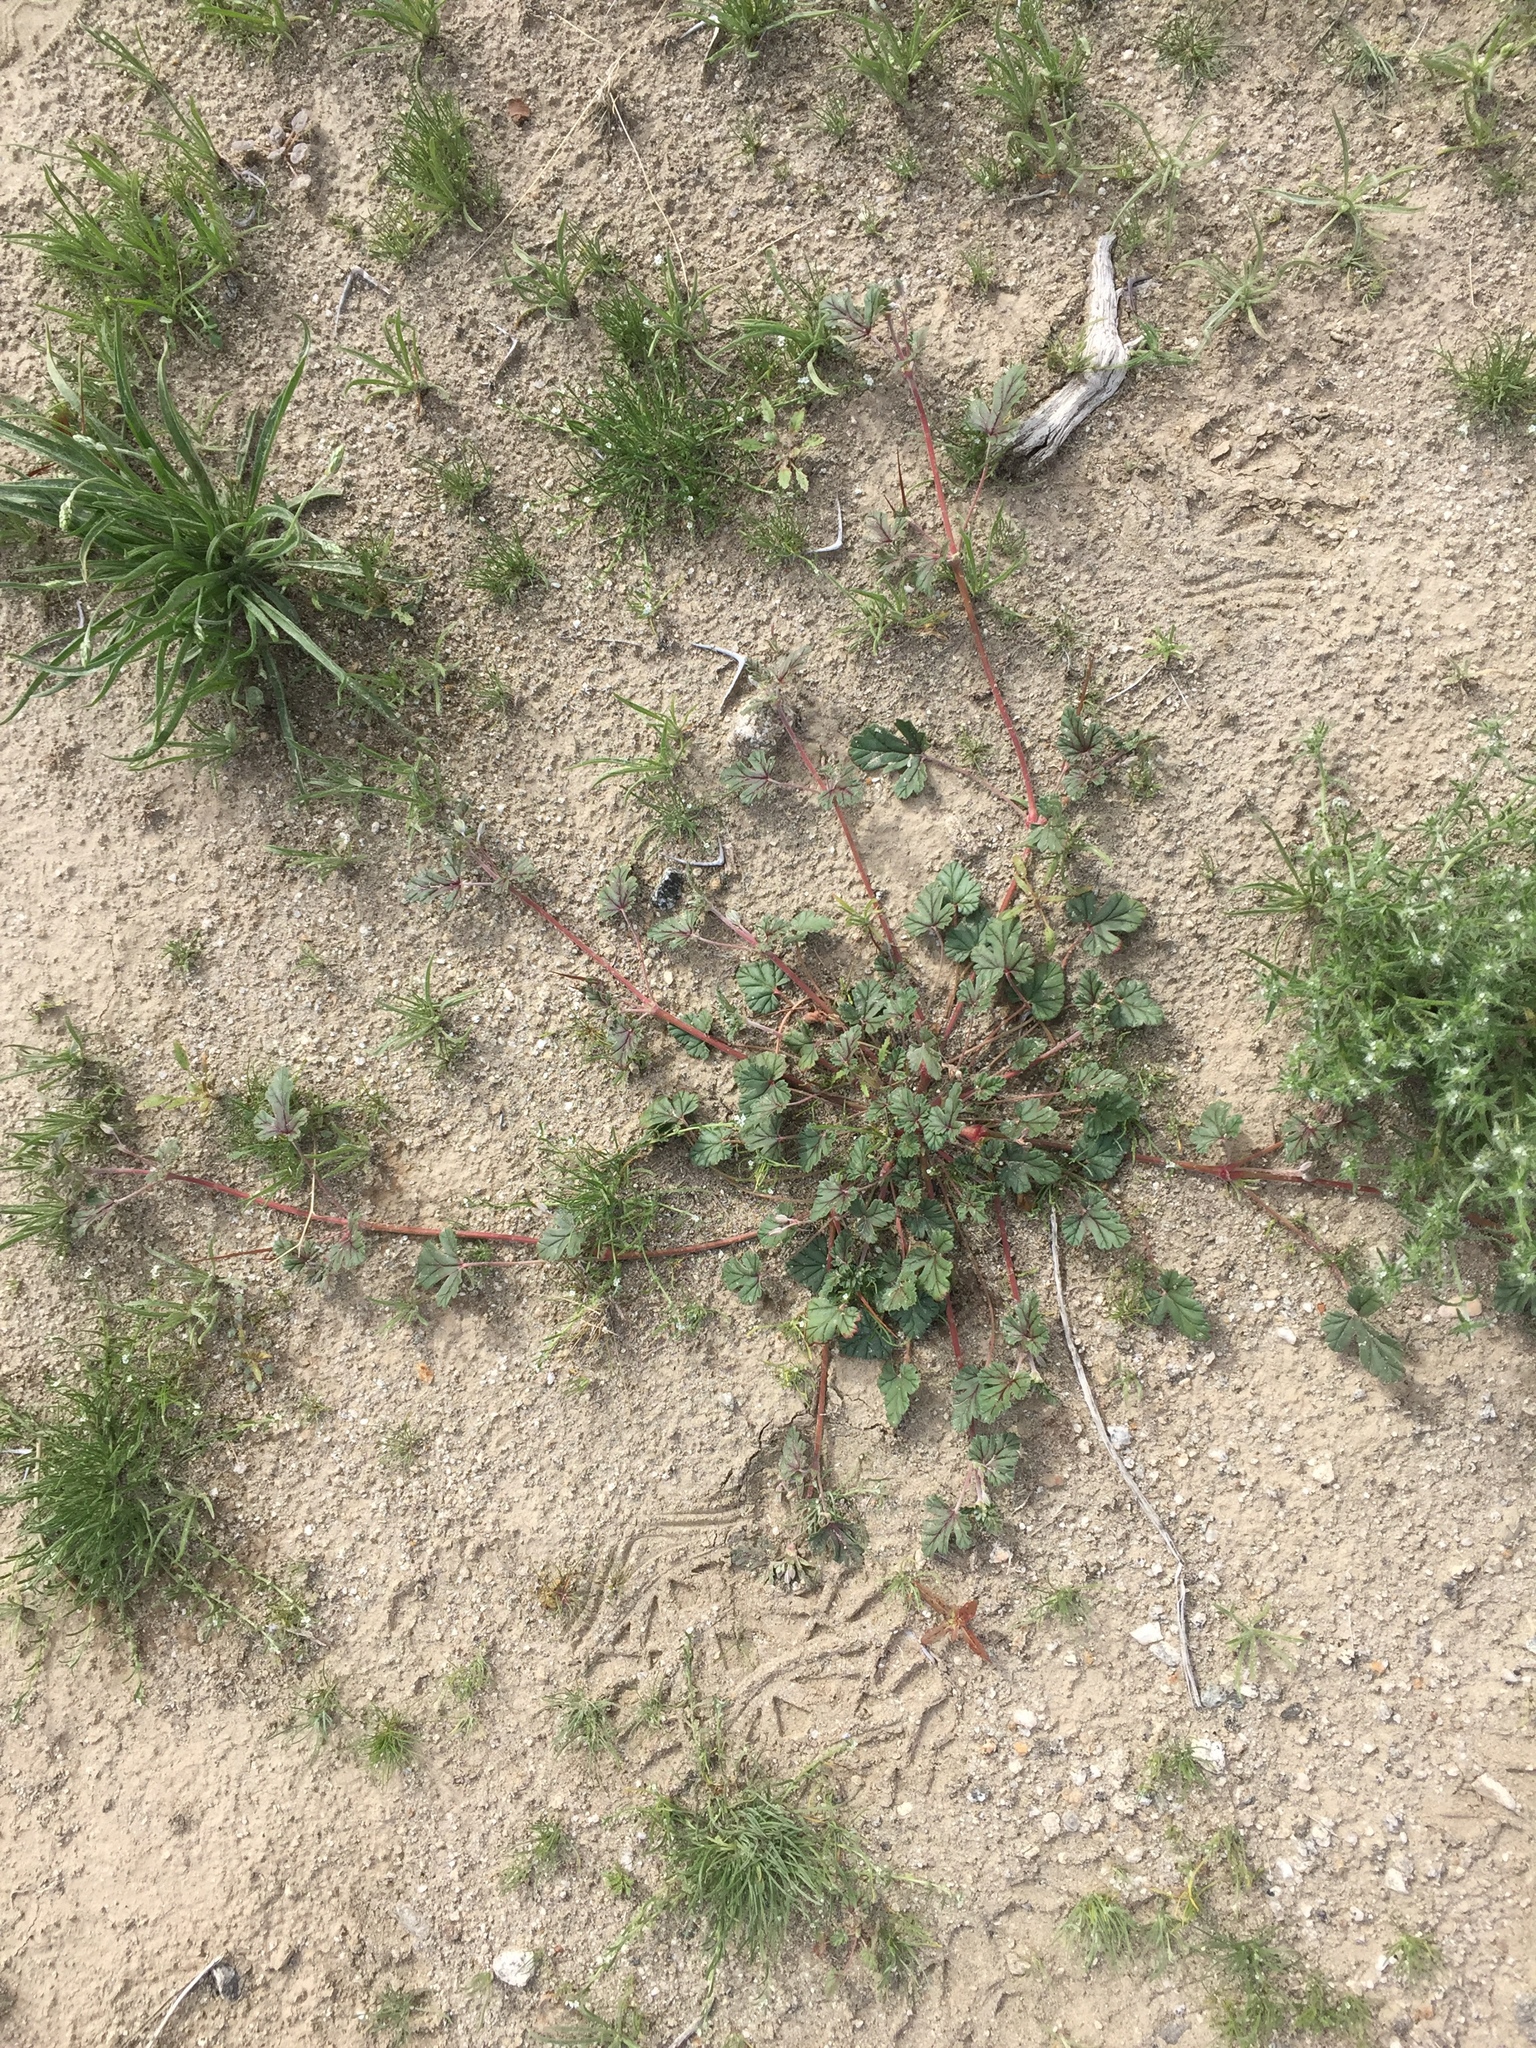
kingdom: Plantae
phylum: Tracheophyta
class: Magnoliopsida
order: Geraniales
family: Geraniaceae
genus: Erodium
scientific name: Erodium texanum
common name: Texas stork's-bill
